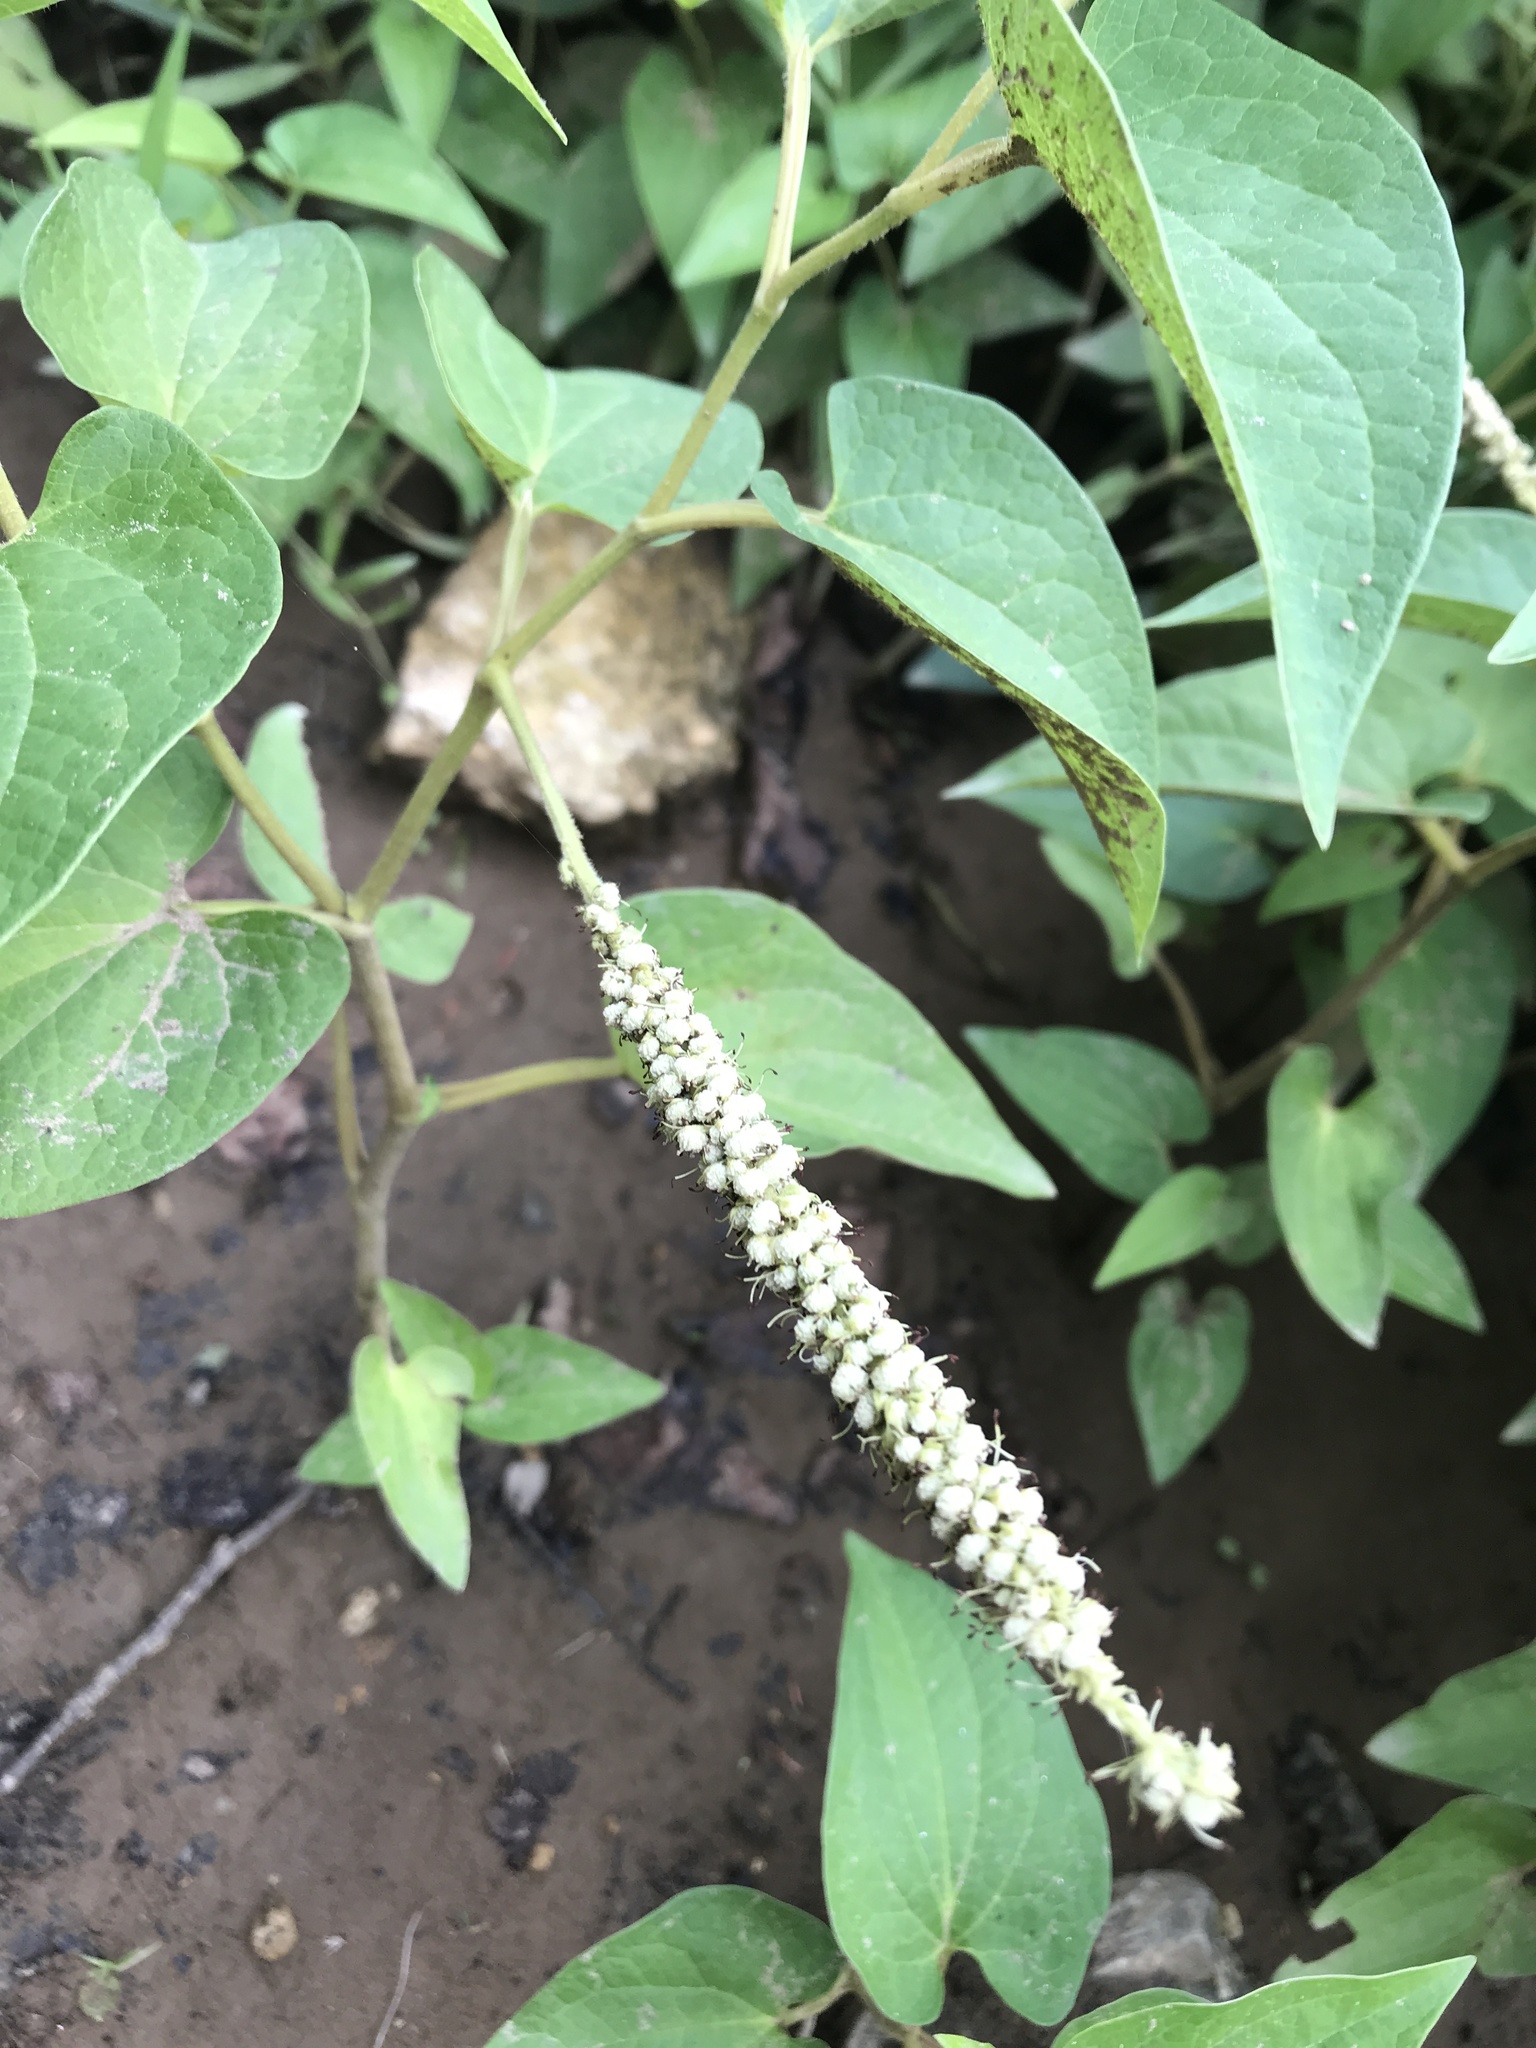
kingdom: Plantae
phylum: Tracheophyta
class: Magnoliopsida
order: Piperales
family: Saururaceae
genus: Saururus
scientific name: Saururus cernuus
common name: Lizard's-tail
